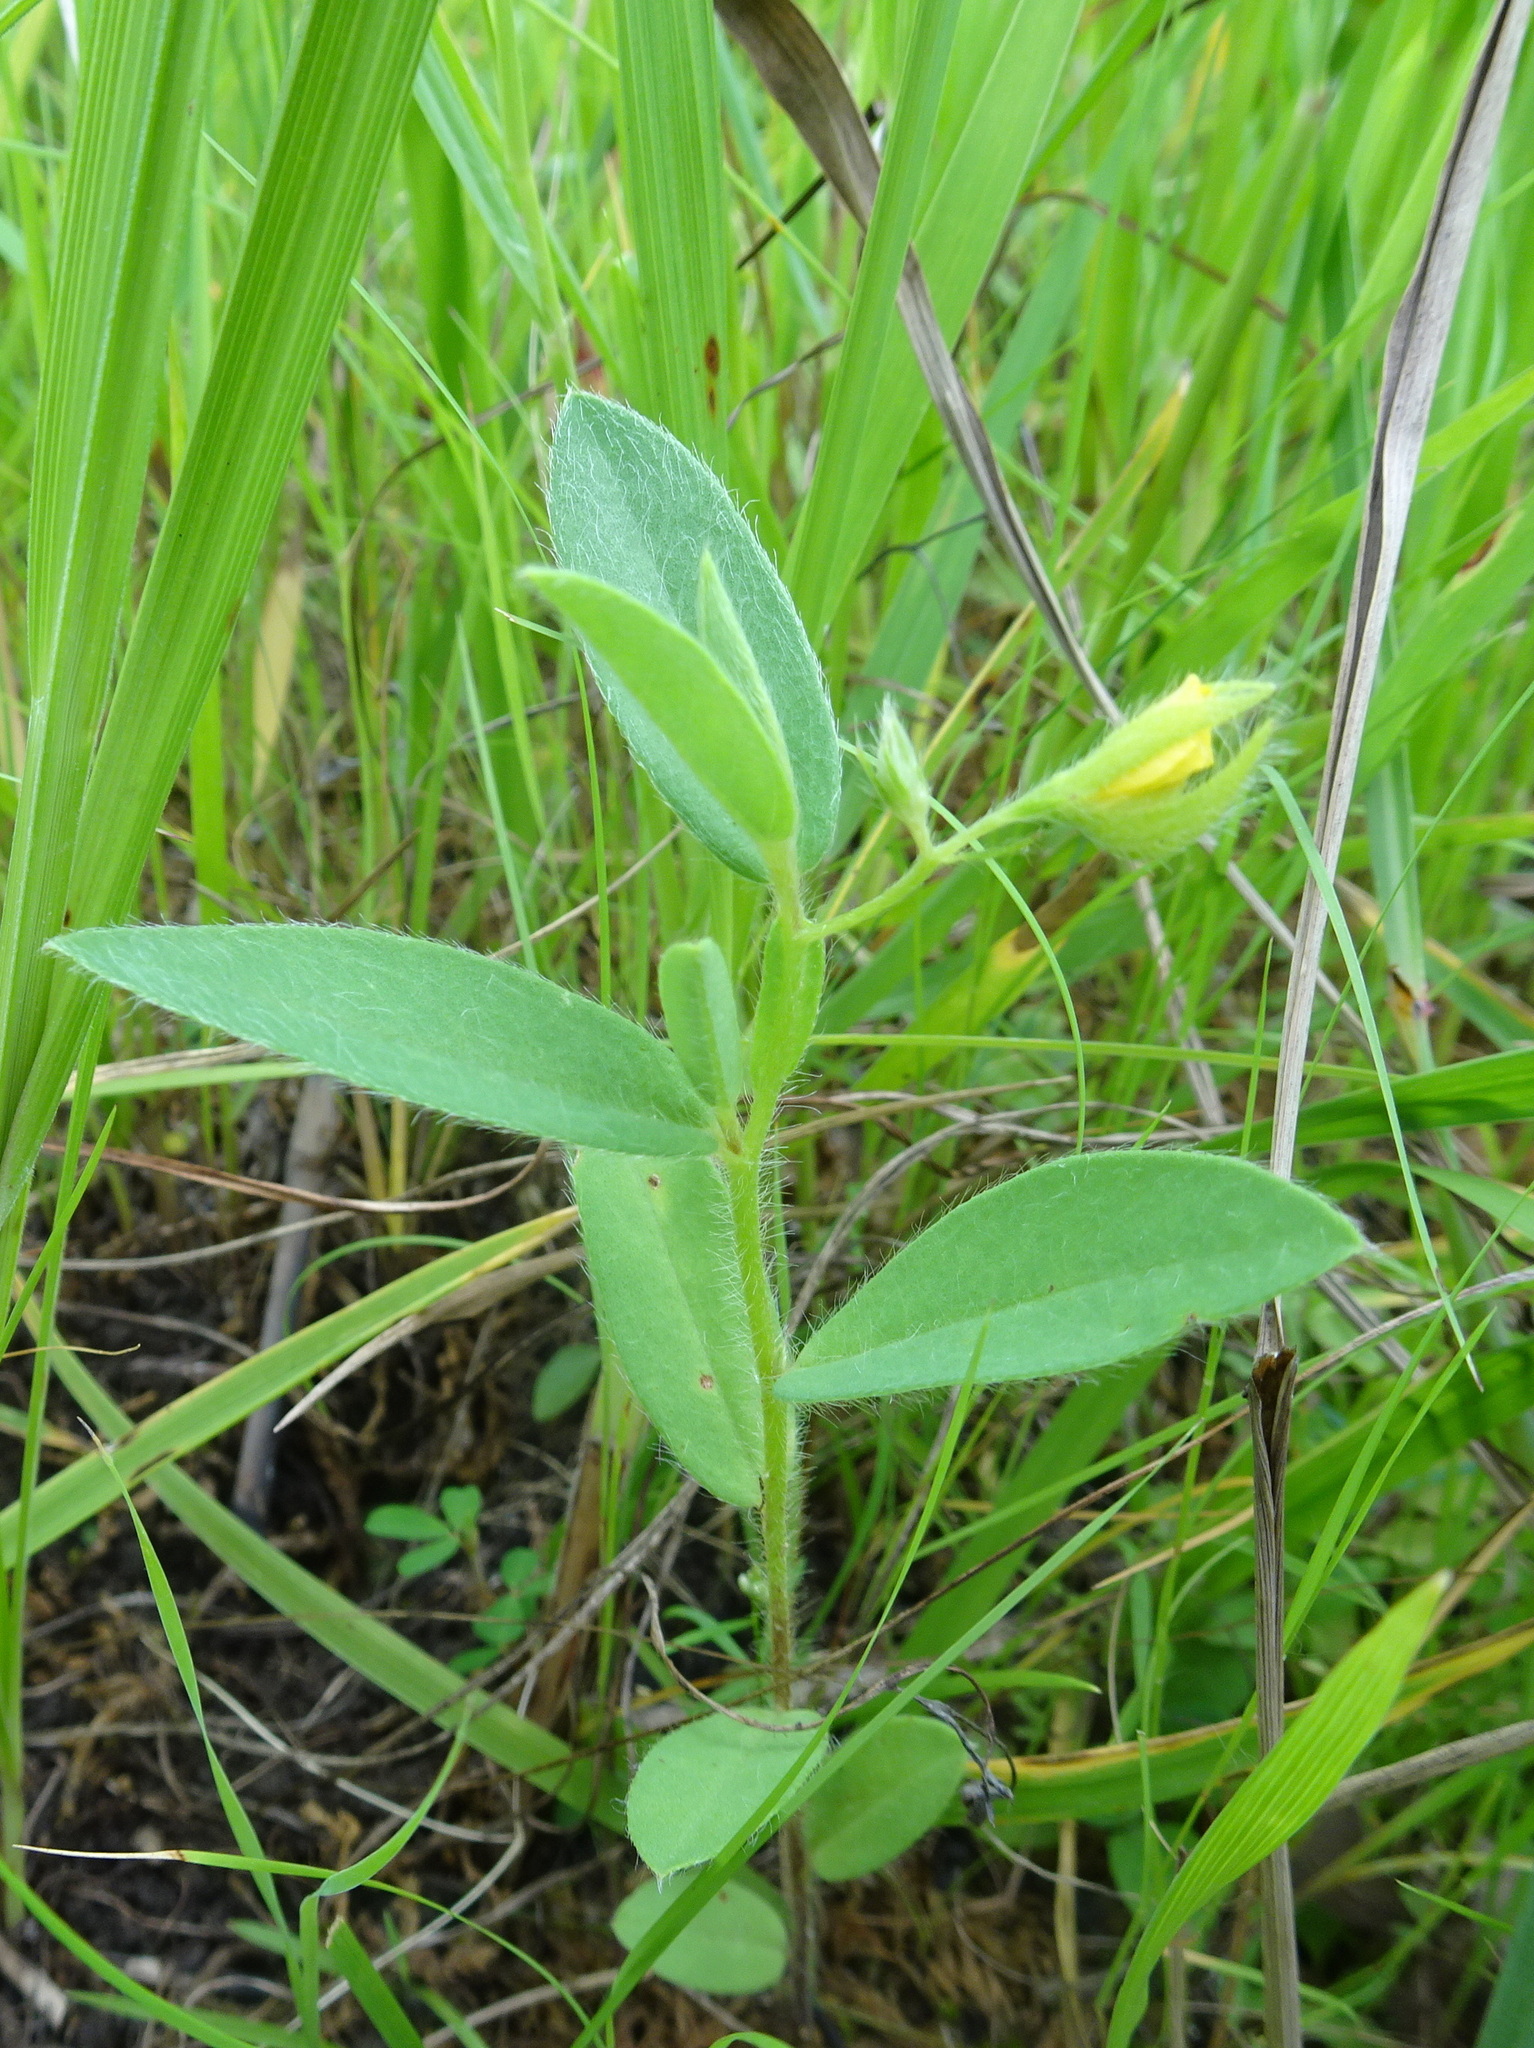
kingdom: Plantae
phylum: Tracheophyta
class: Magnoliopsida
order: Fabales
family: Fabaceae
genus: Crotalaria
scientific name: Crotalaria sagittalis
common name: Arrowhead rattlebox
